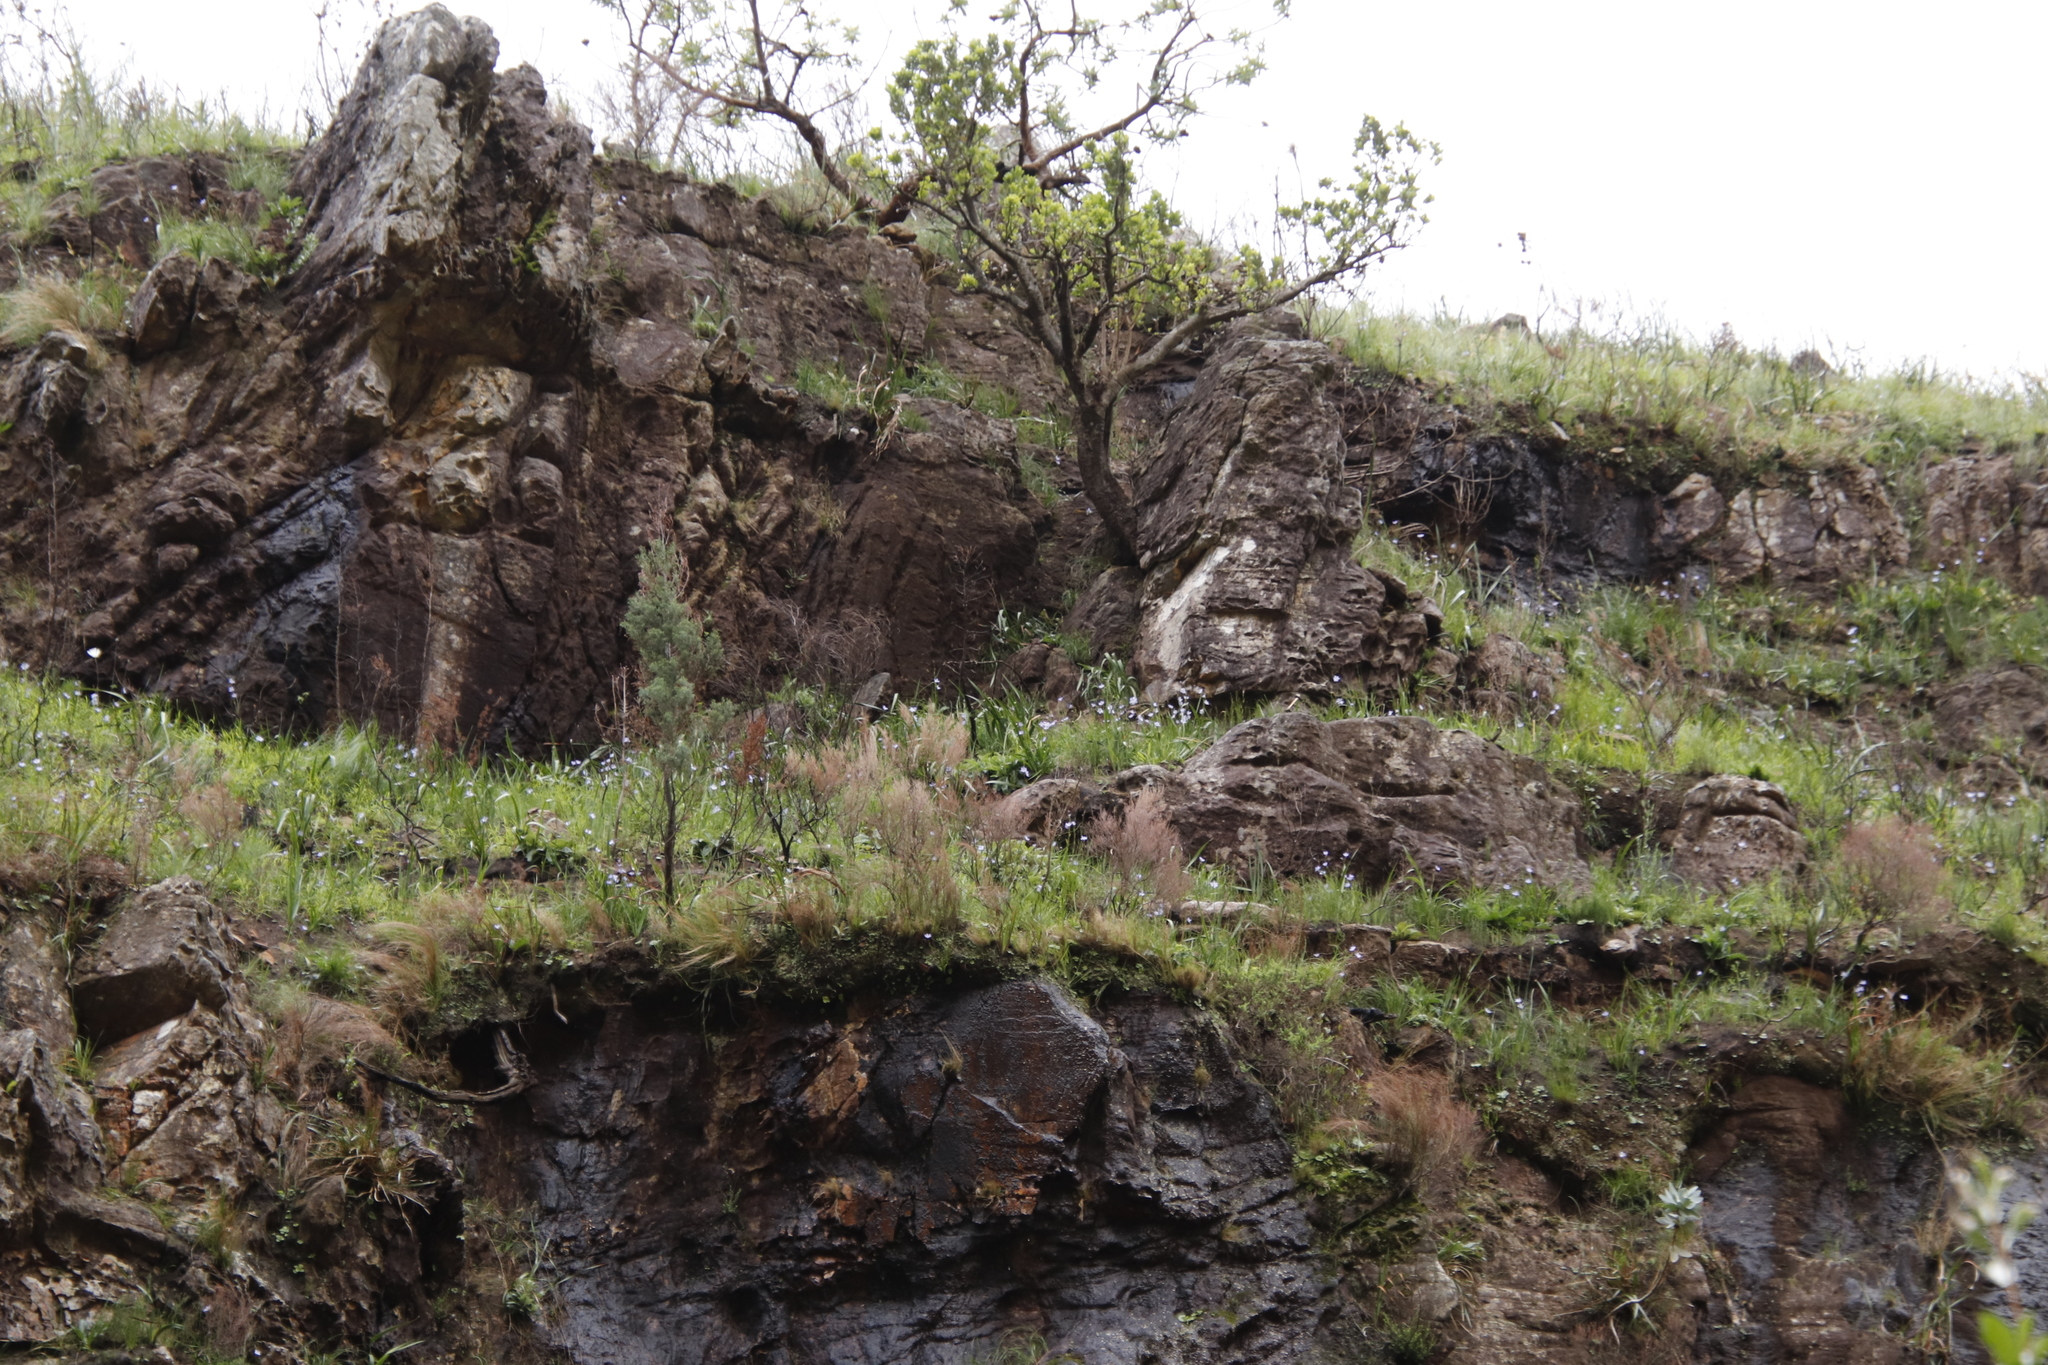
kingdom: Plantae
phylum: Tracheophyta
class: Magnoliopsida
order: Proteales
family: Proteaceae
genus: Hakea
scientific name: Hakea sericea
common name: Needle bush
